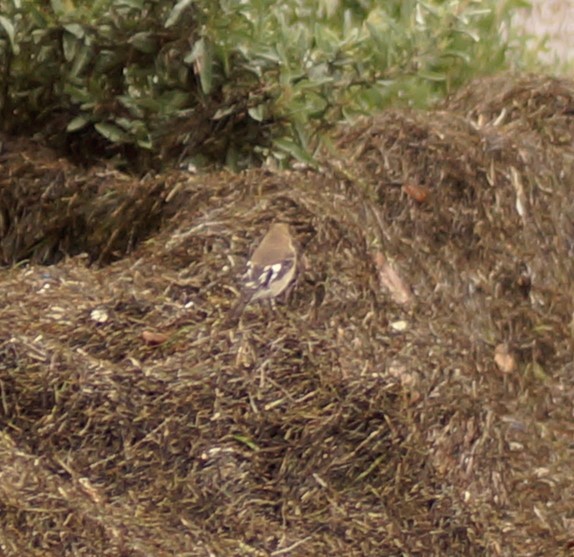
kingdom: Animalia
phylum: Chordata
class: Aves
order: Passeriformes
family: Petroicidae
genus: Petroica
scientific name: Petroica phoenicea
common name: Flame robin
